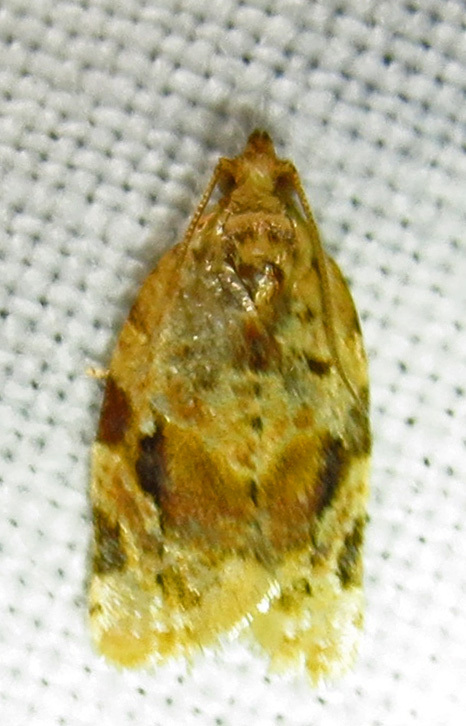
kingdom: Animalia
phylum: Arthropoda
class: Insecta
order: Lepidoptera
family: Tortricidae
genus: Argyrotaenia
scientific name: Argyrotaenia velutinana
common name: Red-banded leafroller moth
